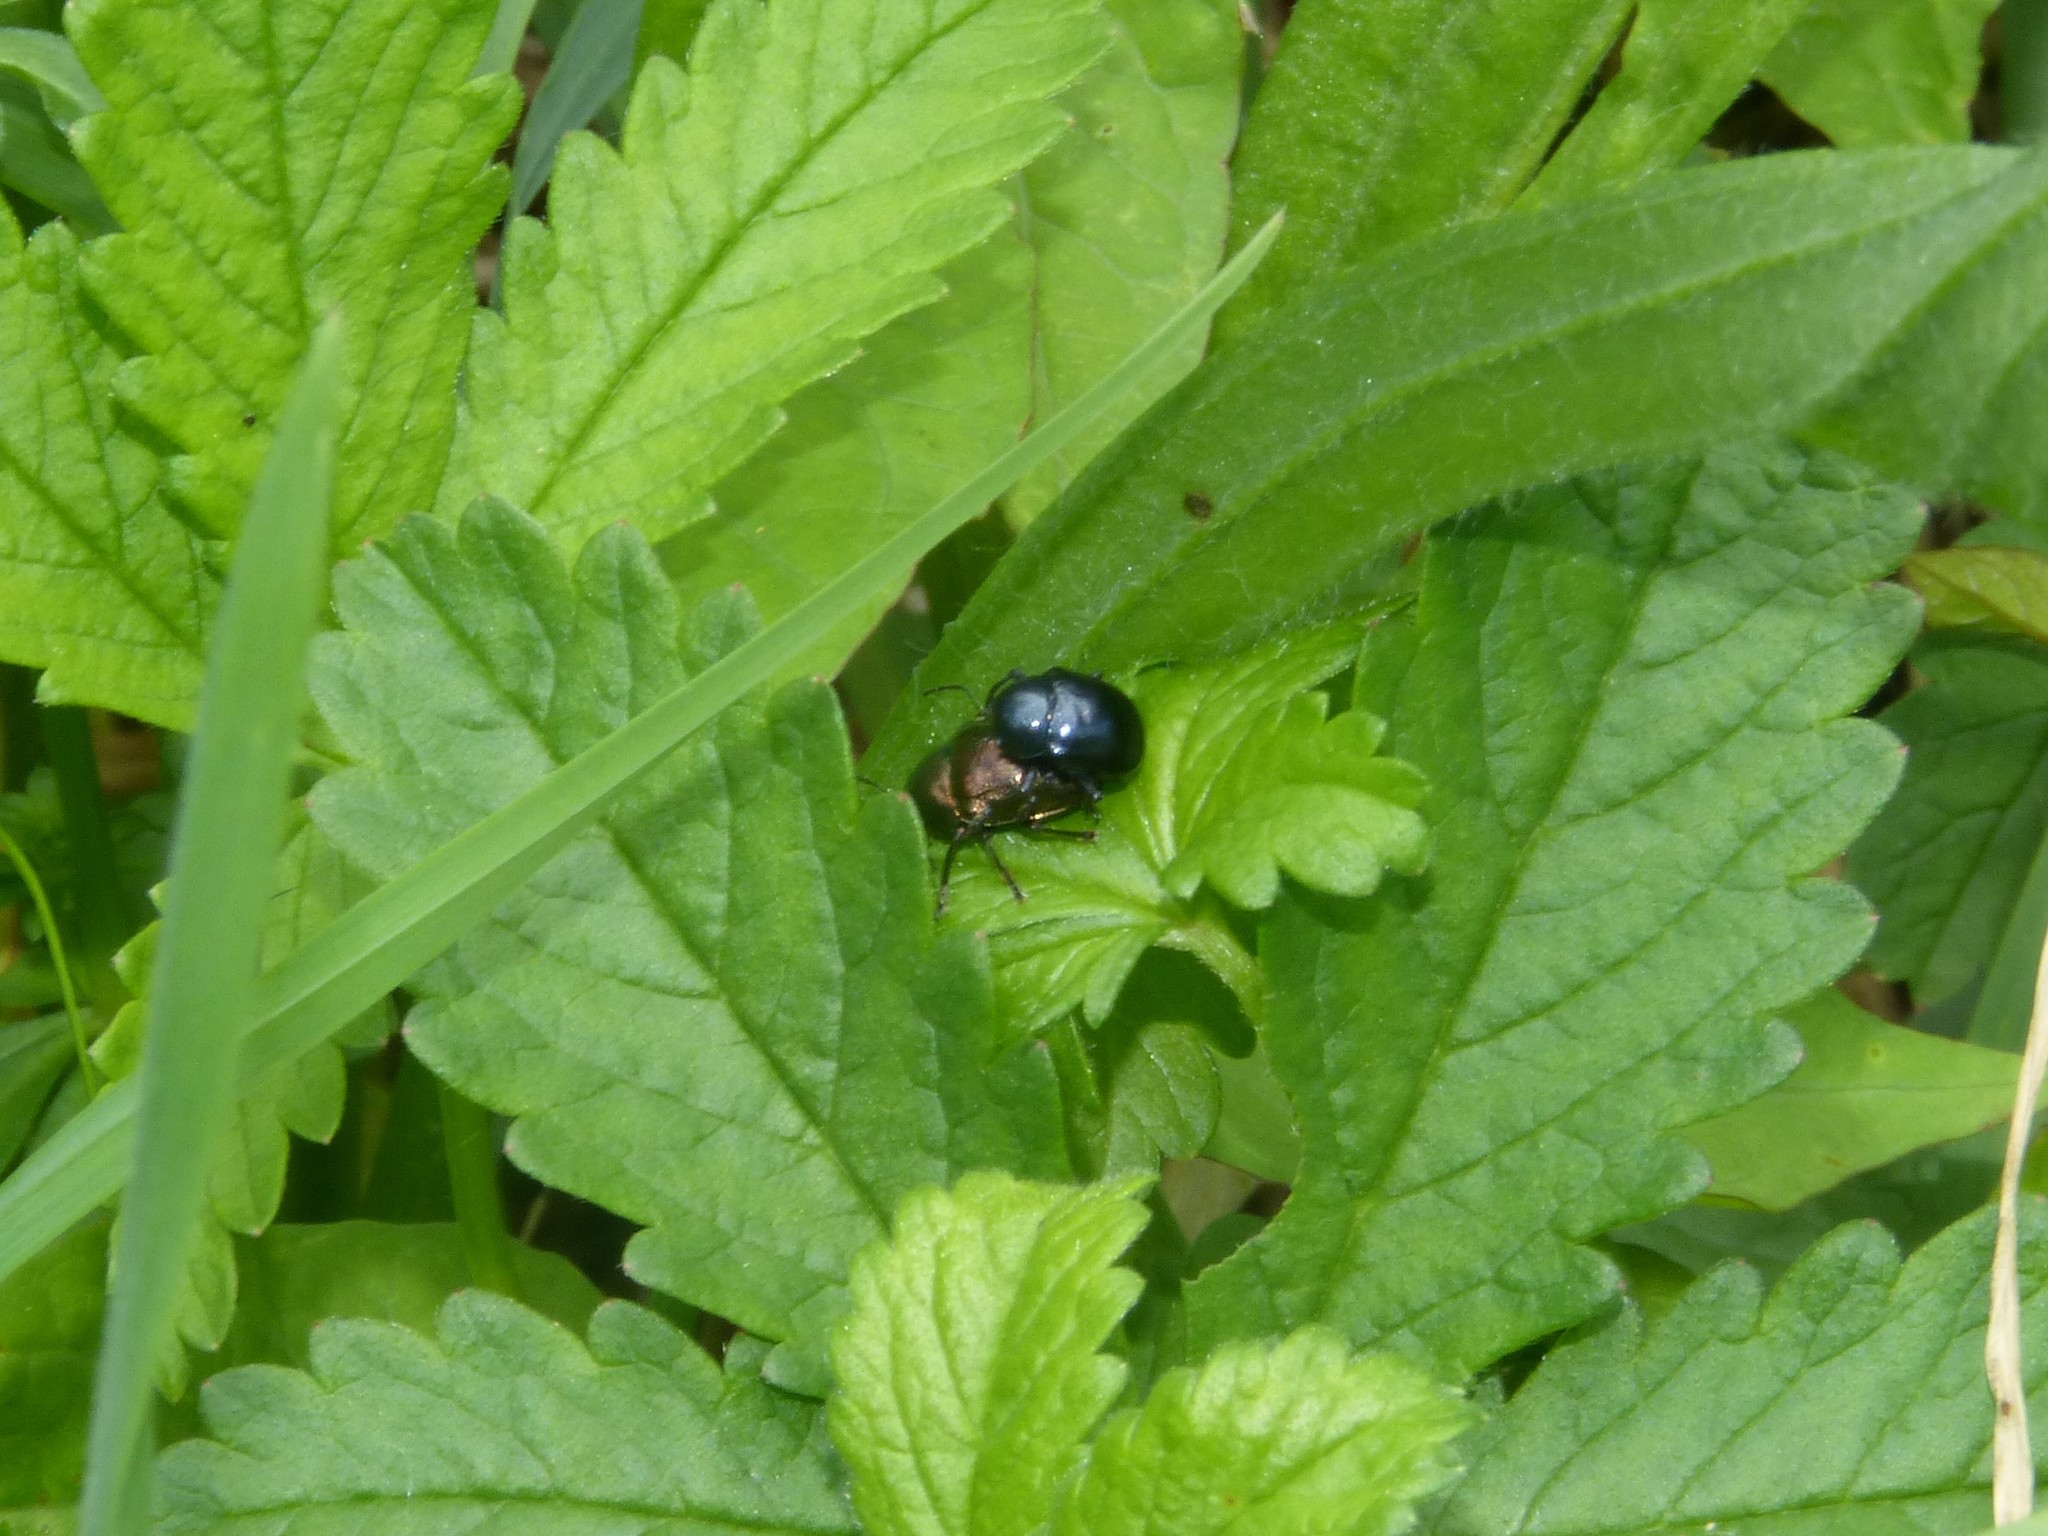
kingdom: Animalia
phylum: Arthropoda
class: Insecta
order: Coleoptera
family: Chrysomelidae
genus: Colasposoma
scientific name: Colasposoma dauricum
